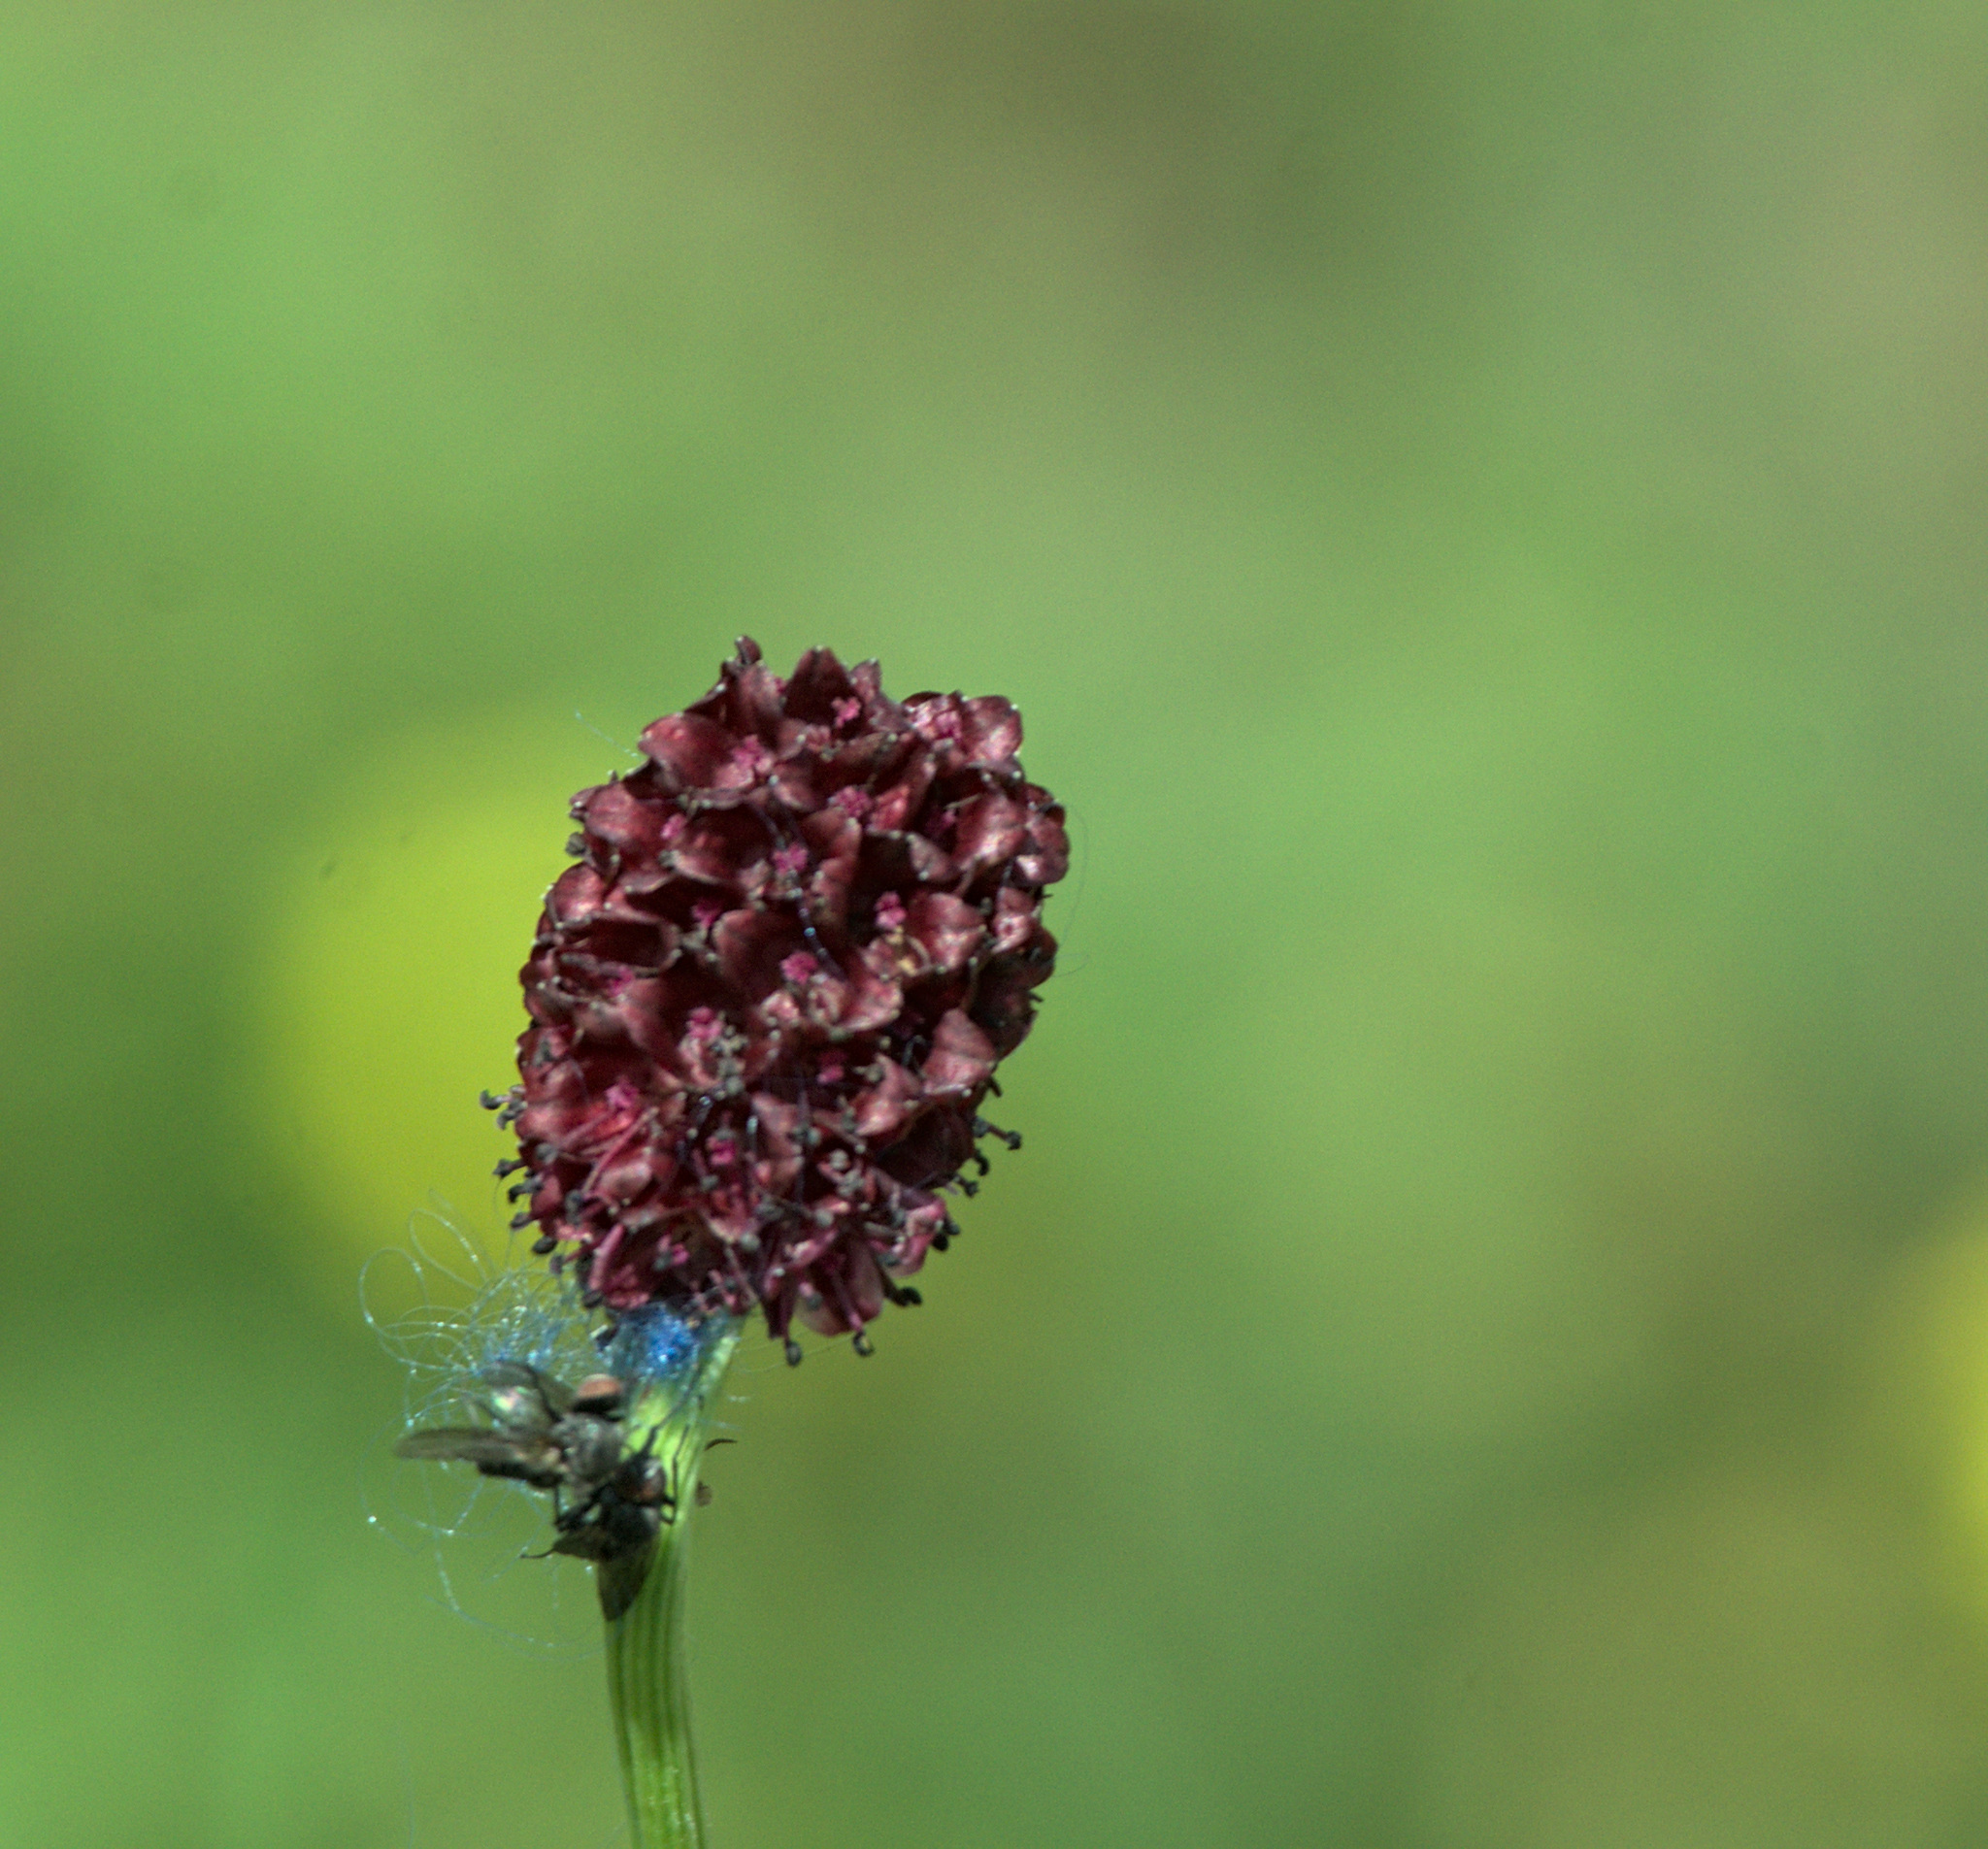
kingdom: Plantae
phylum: Tracheophyta
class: Magnoliopsida
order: Rosales
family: Rosaceae
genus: Sanguisorba
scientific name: Sanguisorba officinalis
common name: Great burnet
